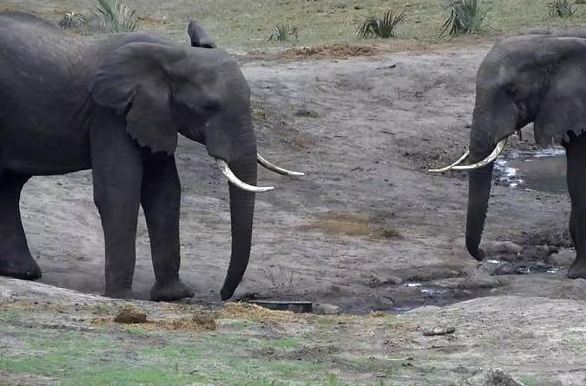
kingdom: Animalia
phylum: Chordata
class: Mammalia
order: Proboscidea
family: Elephantidae
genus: Loxodonta
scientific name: Loxodonta africana
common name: African elephant
